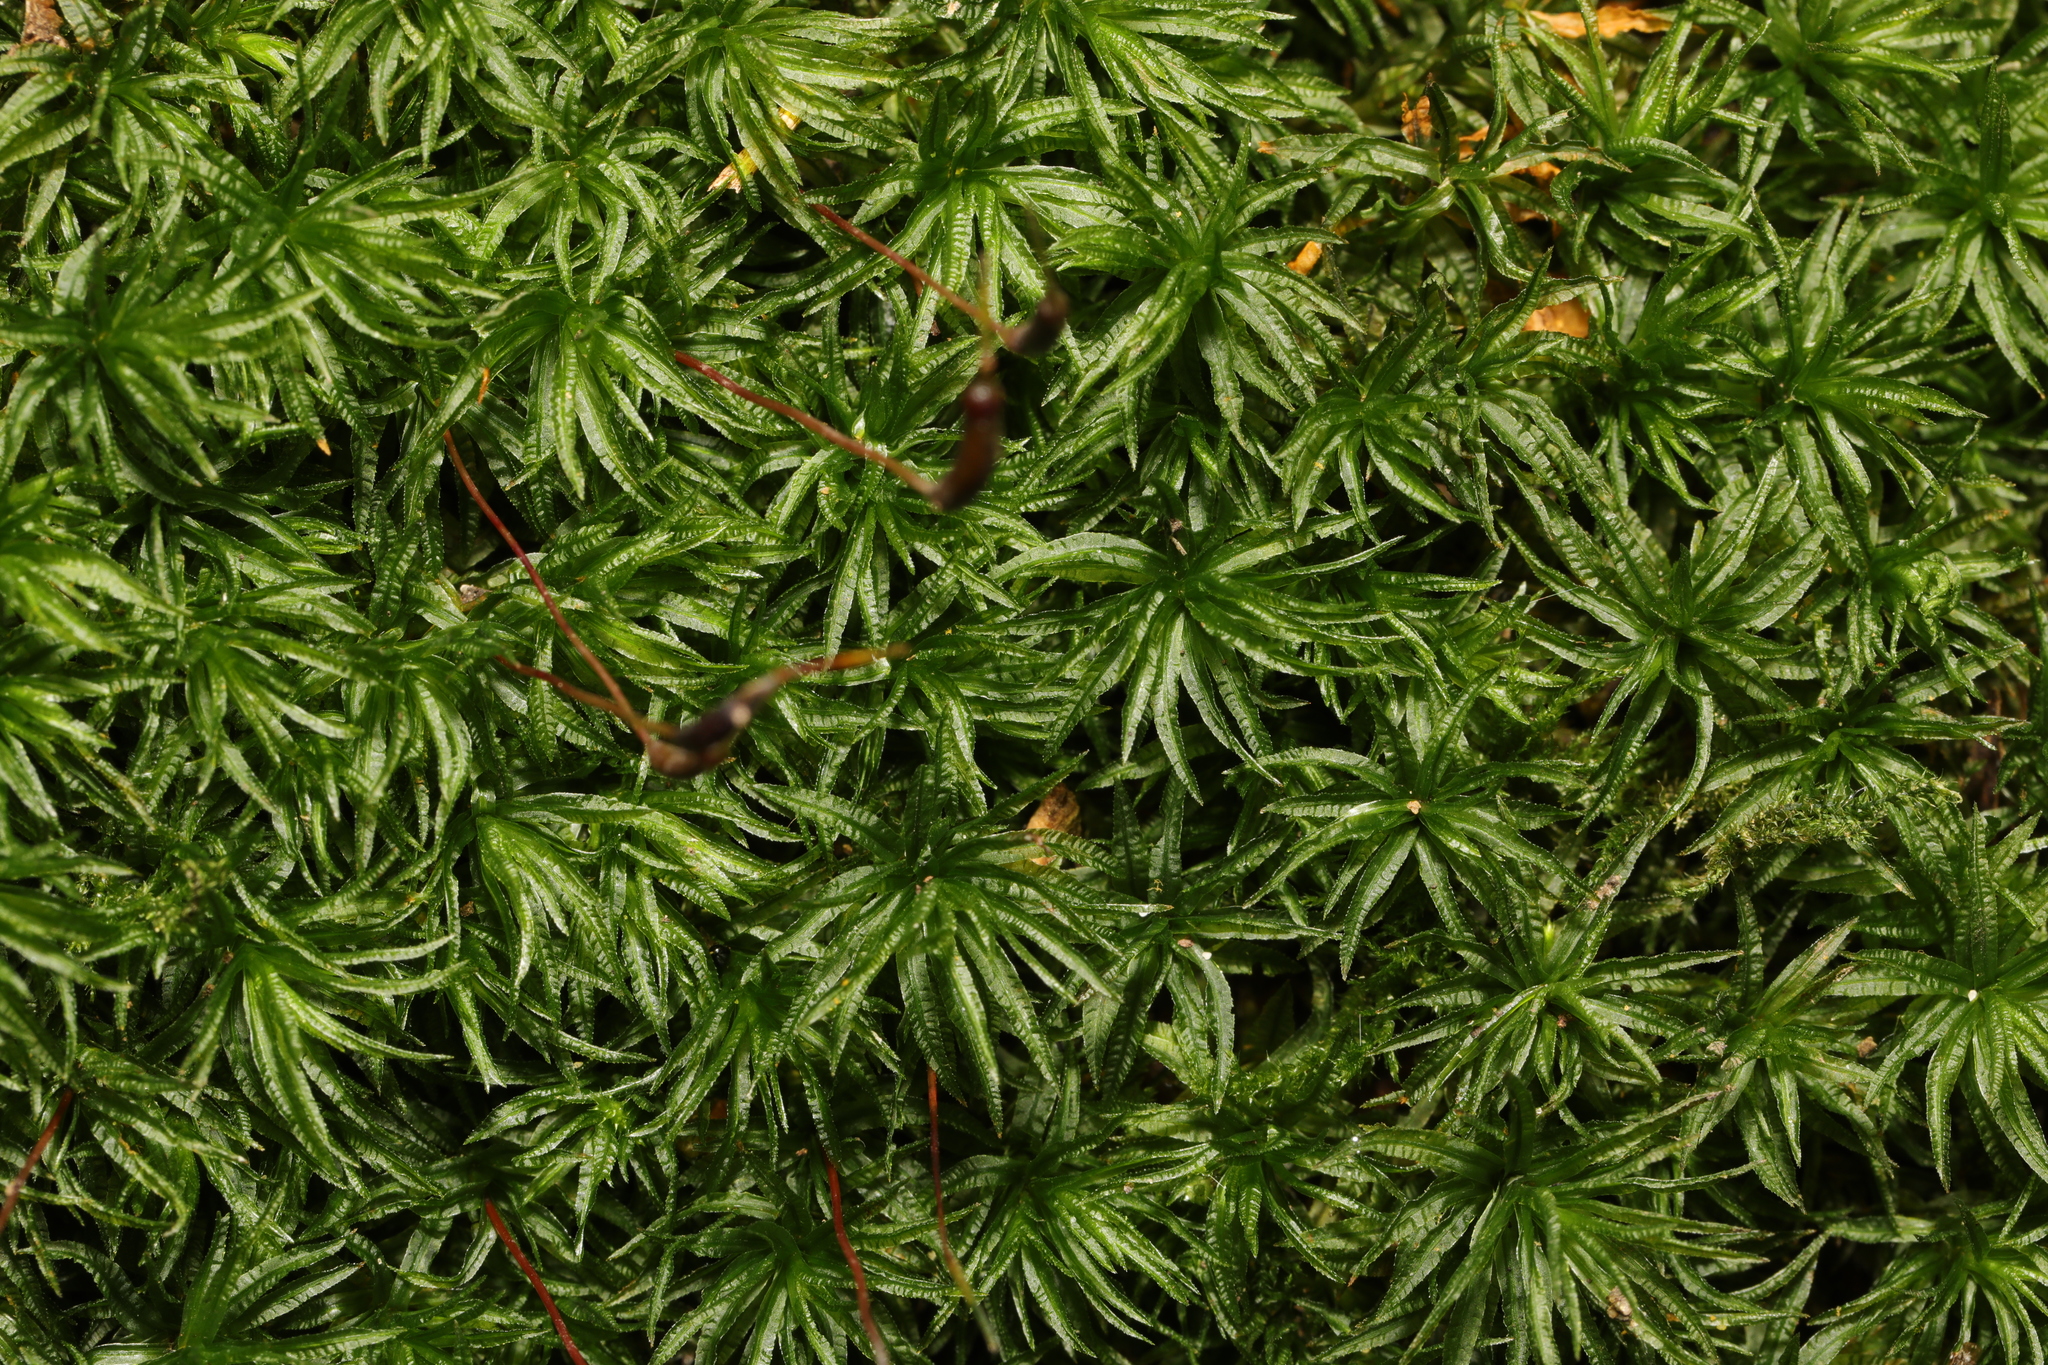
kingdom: Plantae
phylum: Bryophyta
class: Polytrichopsida
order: Polytrichales
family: Polytrichaceae
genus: Atrichum
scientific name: Atrichum undulatum
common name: Common smoothcap
